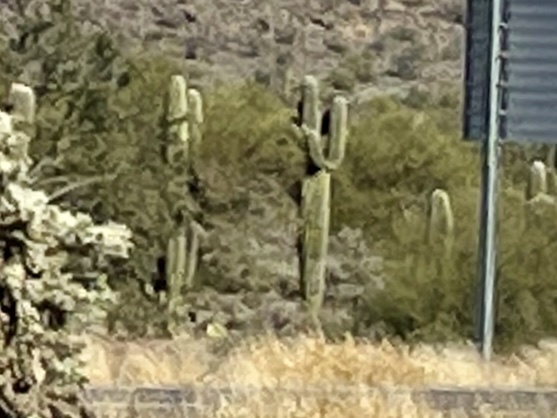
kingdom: Plantae
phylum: Tracheophyta
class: Magnoliopsida
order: Caryophyllales
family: Cactaceae
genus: Carnegiea
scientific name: Carnegiea gigantea
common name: Saguaro
